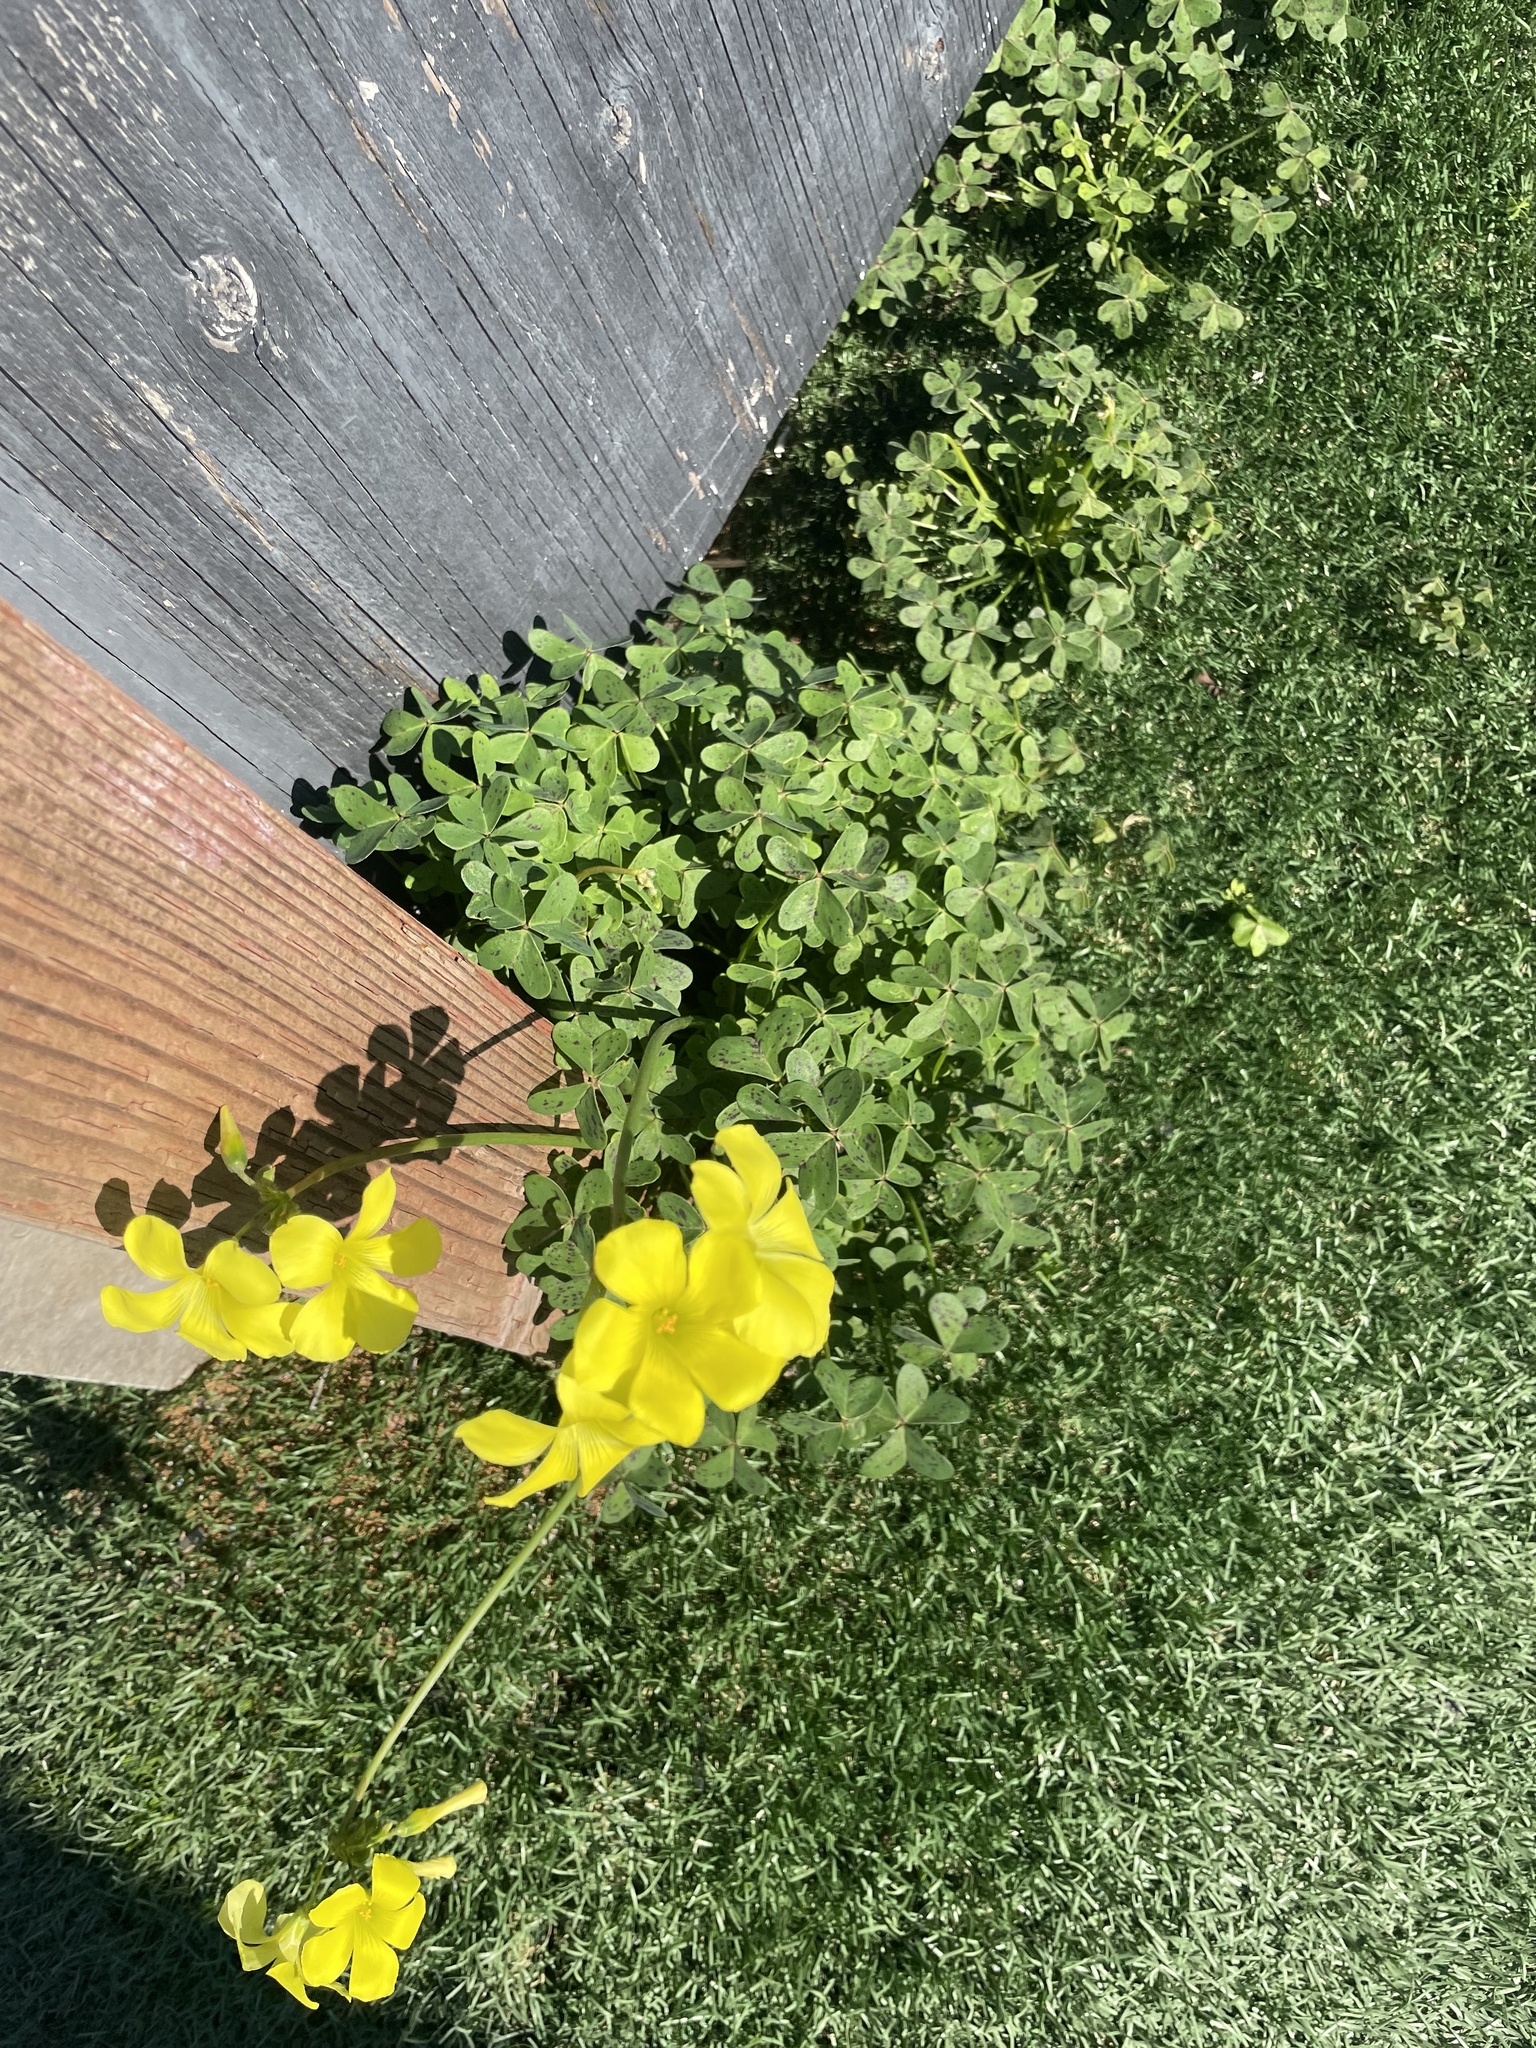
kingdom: Plantae
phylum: Tracheophyta
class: Magnoliopsida
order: Oxalidales
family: Oxalidaceae
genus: Oxalis
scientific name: Oxalis pes-caprae
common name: Bermuda-buttercup
